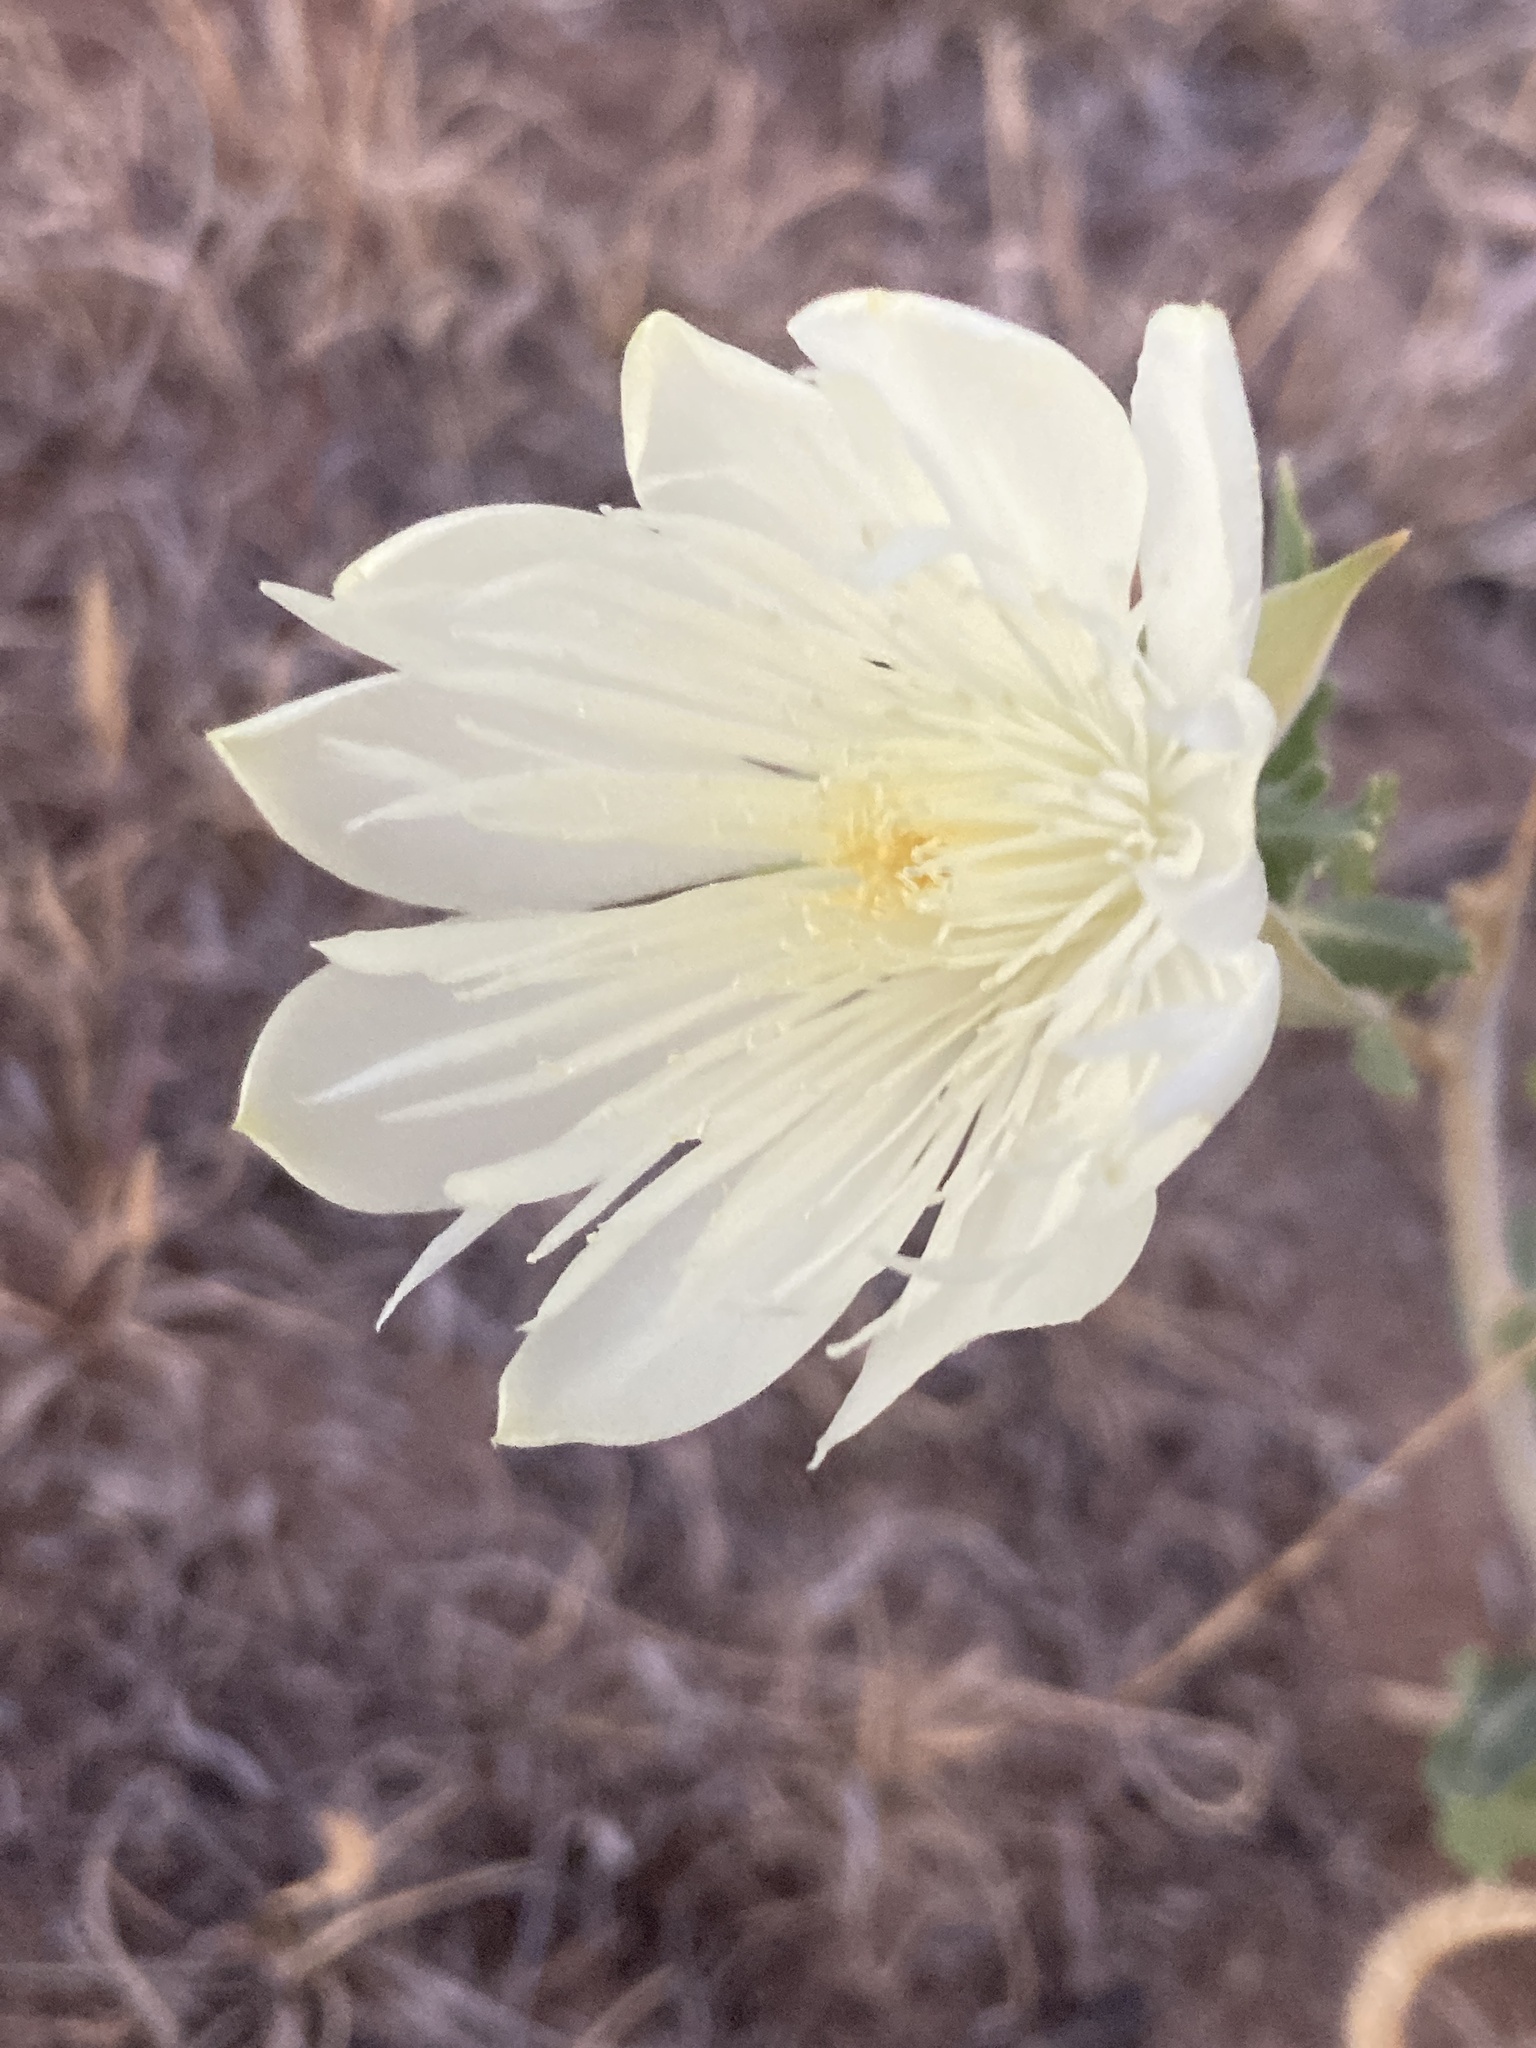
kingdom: Plantae
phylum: Tracheophyta
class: Magnoliopsida
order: Cornales
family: Loasaceae
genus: Mentzelia
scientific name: Mentzelia nuda
